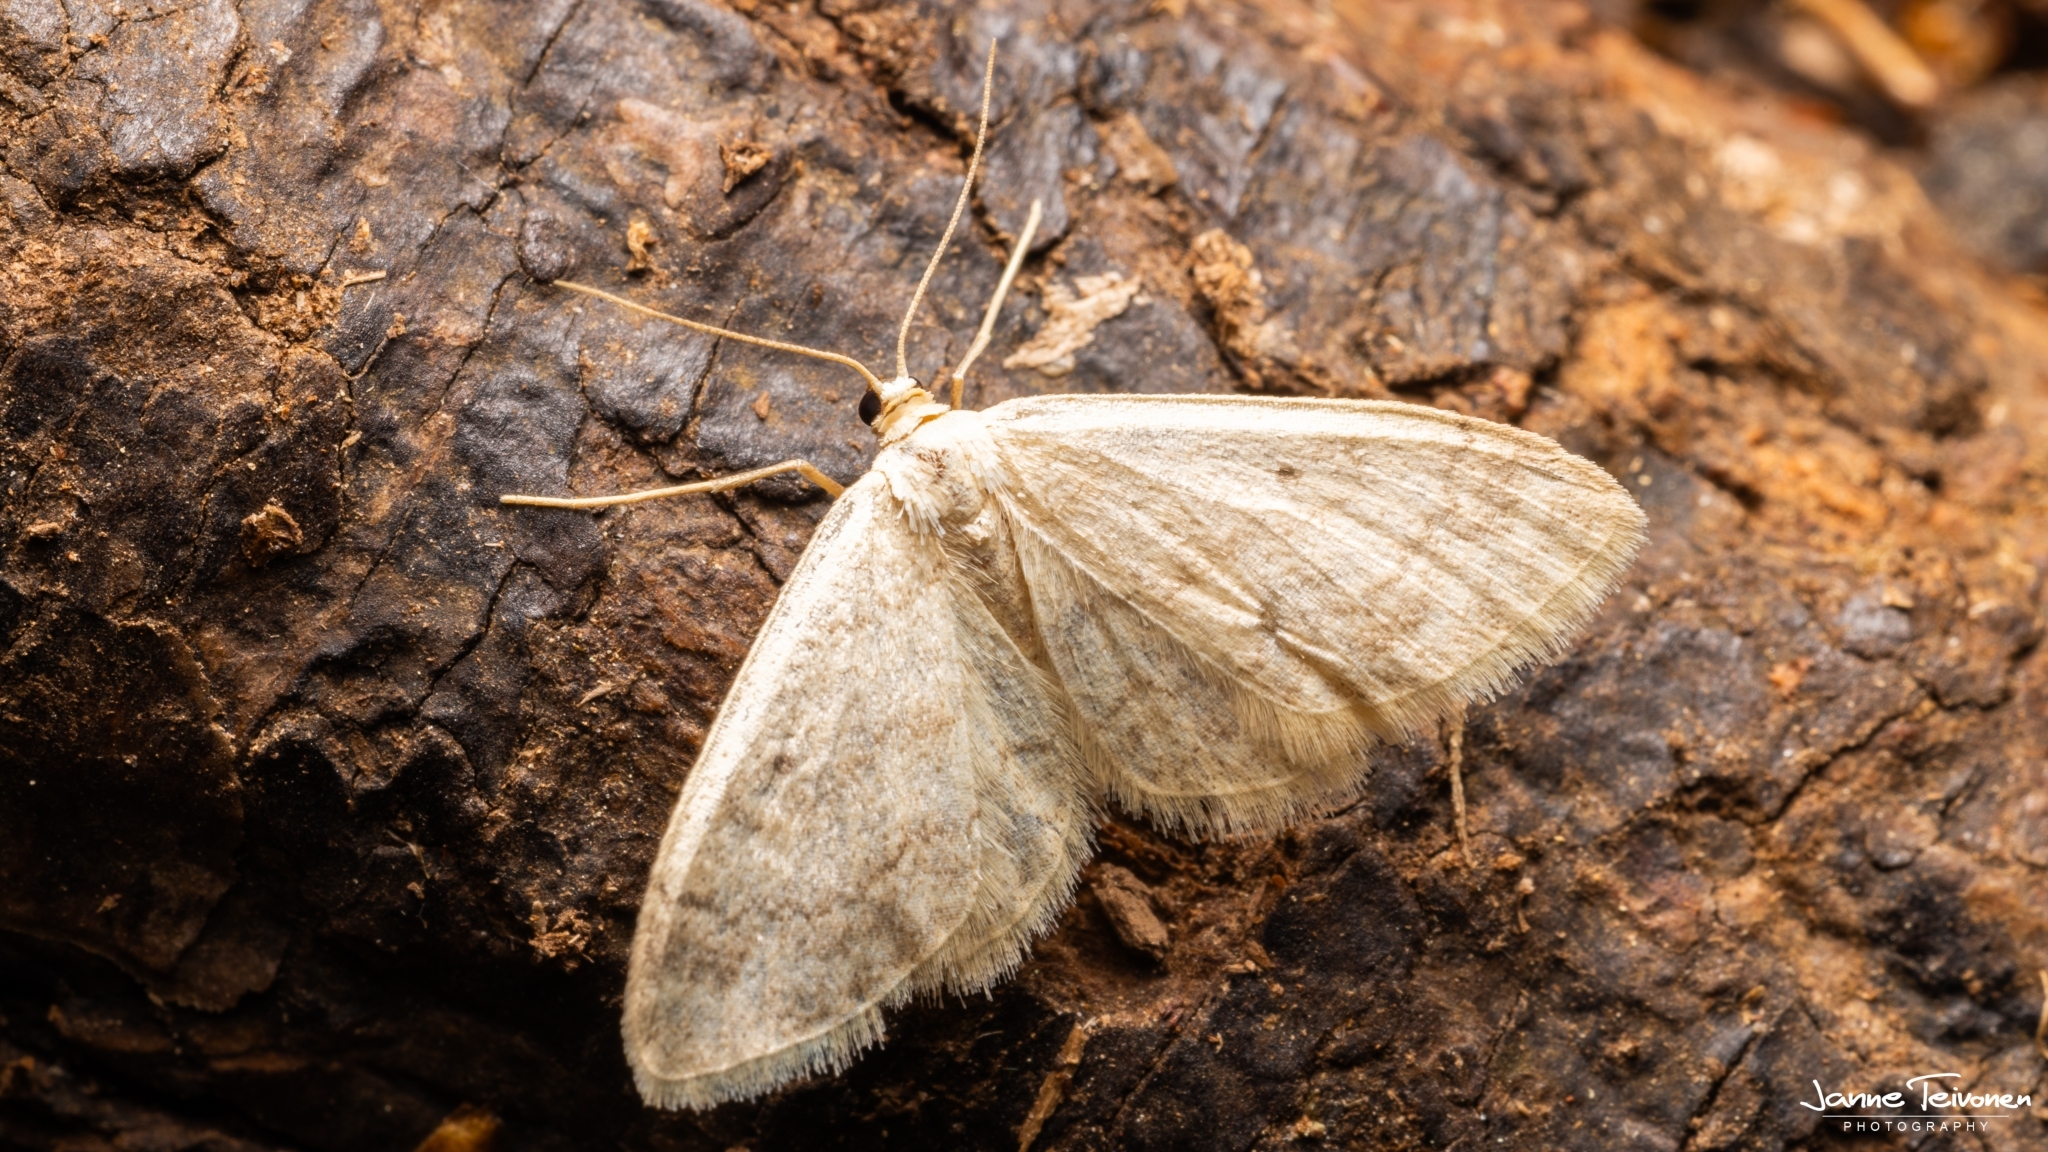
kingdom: Animalia
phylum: Arthropoda
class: Insecta
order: Lepidoptera
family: Geometridae
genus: Idaea
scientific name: Idaea biselata
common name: Small fan-footed wave
